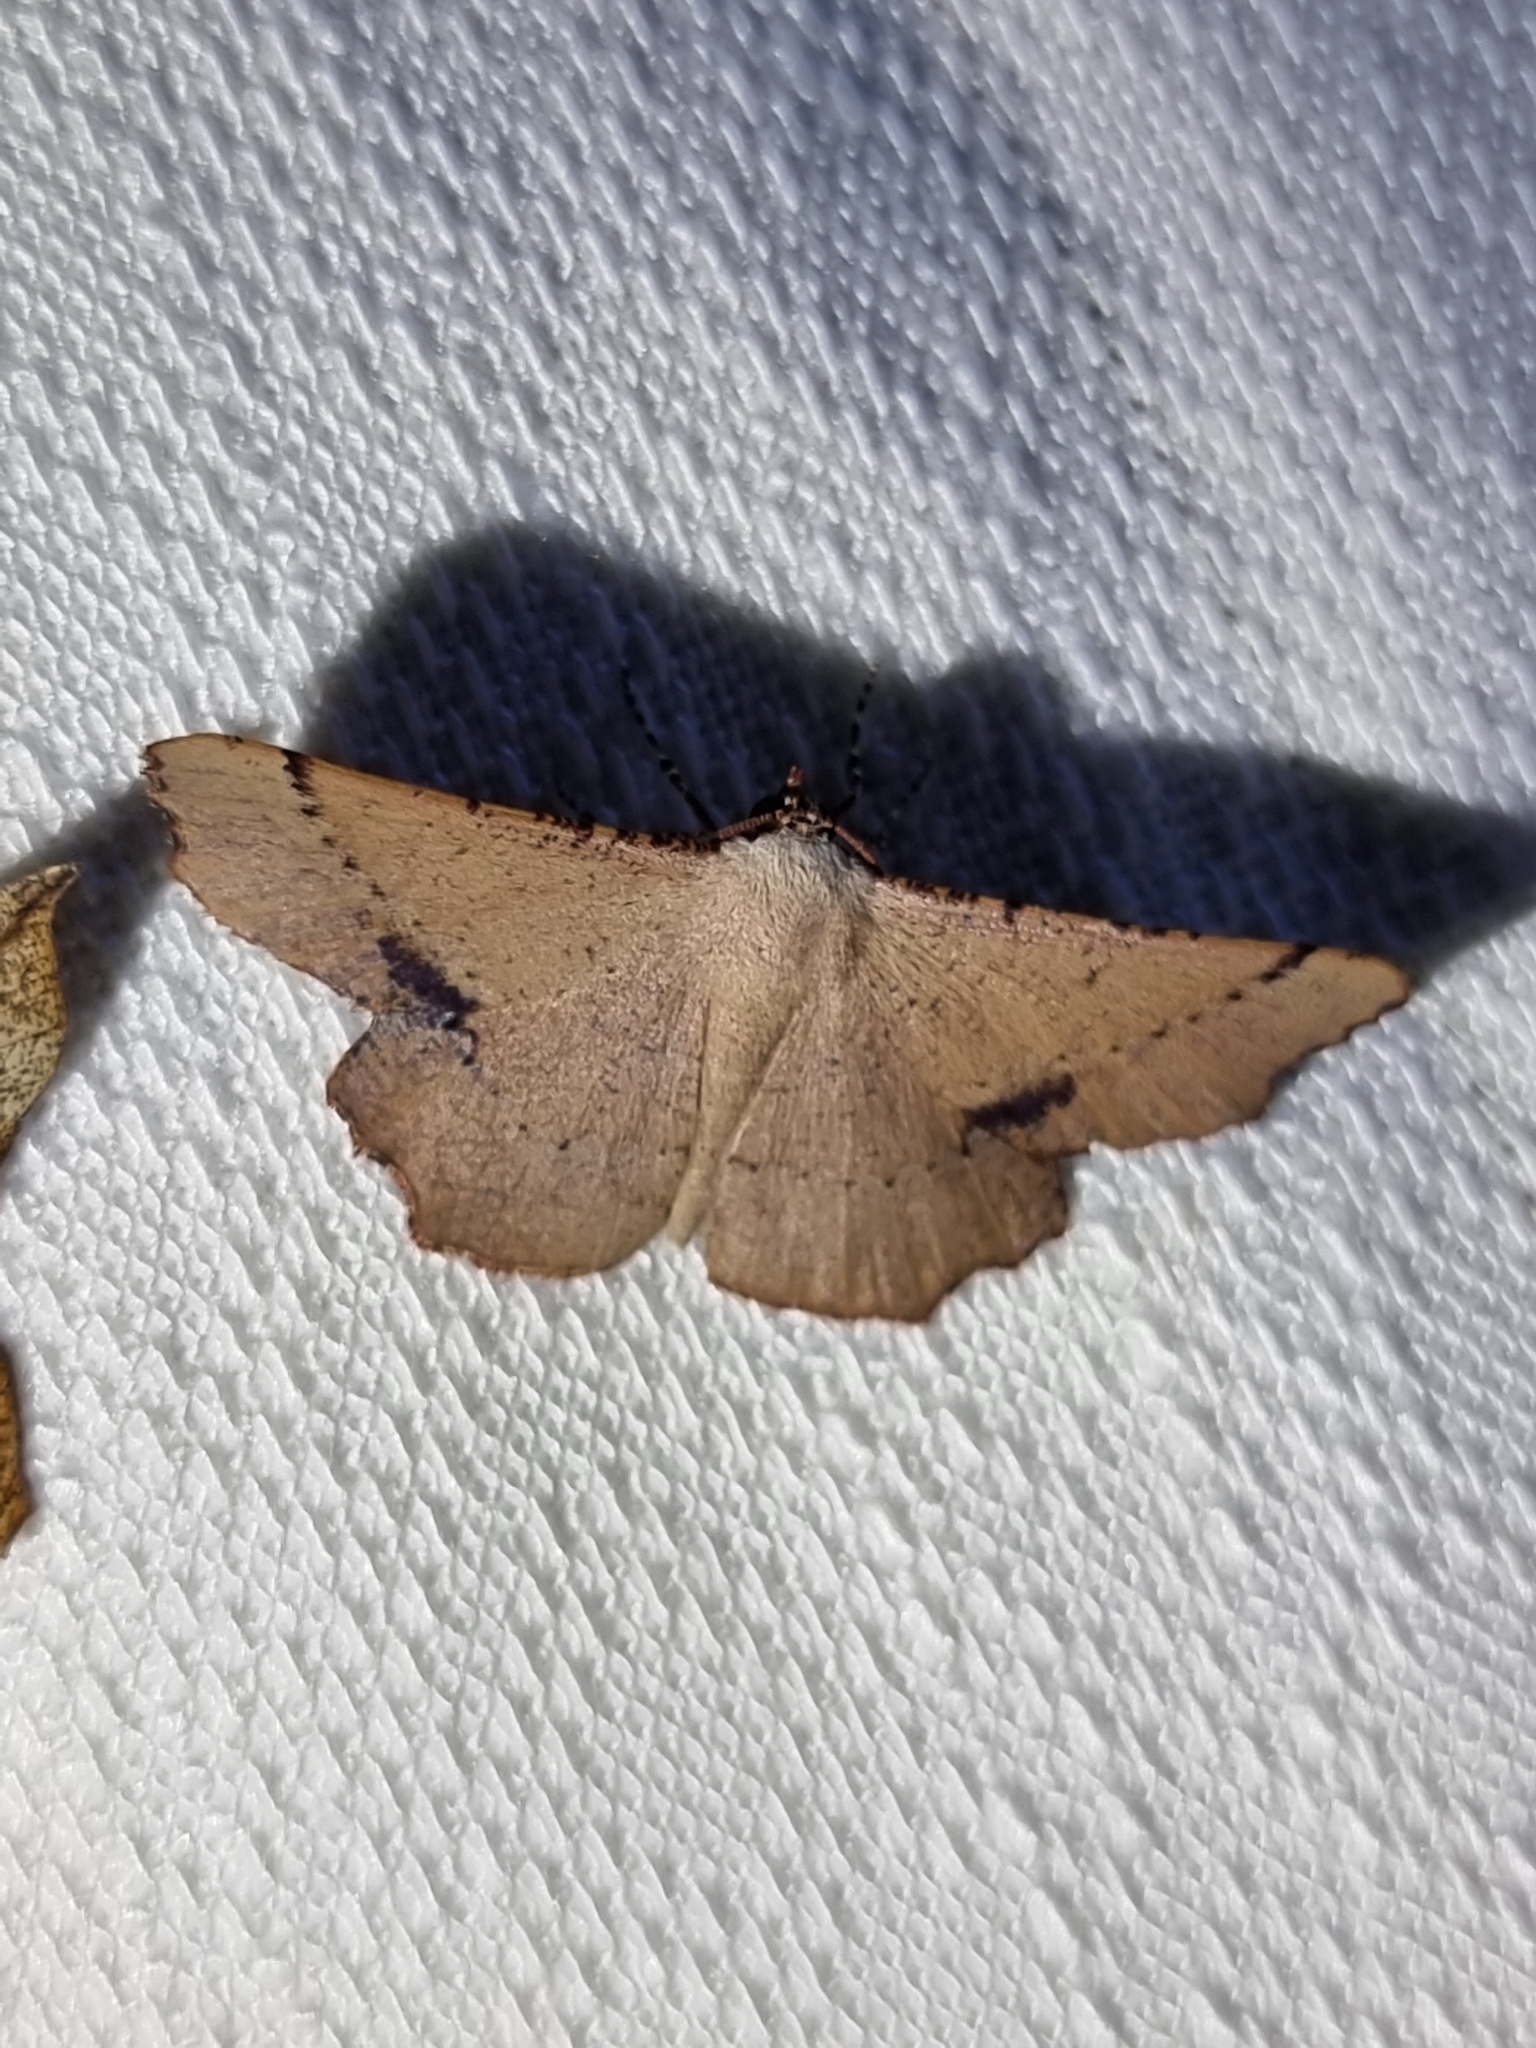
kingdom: Animalia
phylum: Arthropoda
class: Insecta
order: Lepidoptera
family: Geometridae
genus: Cernia
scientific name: Cernia amyclaria
